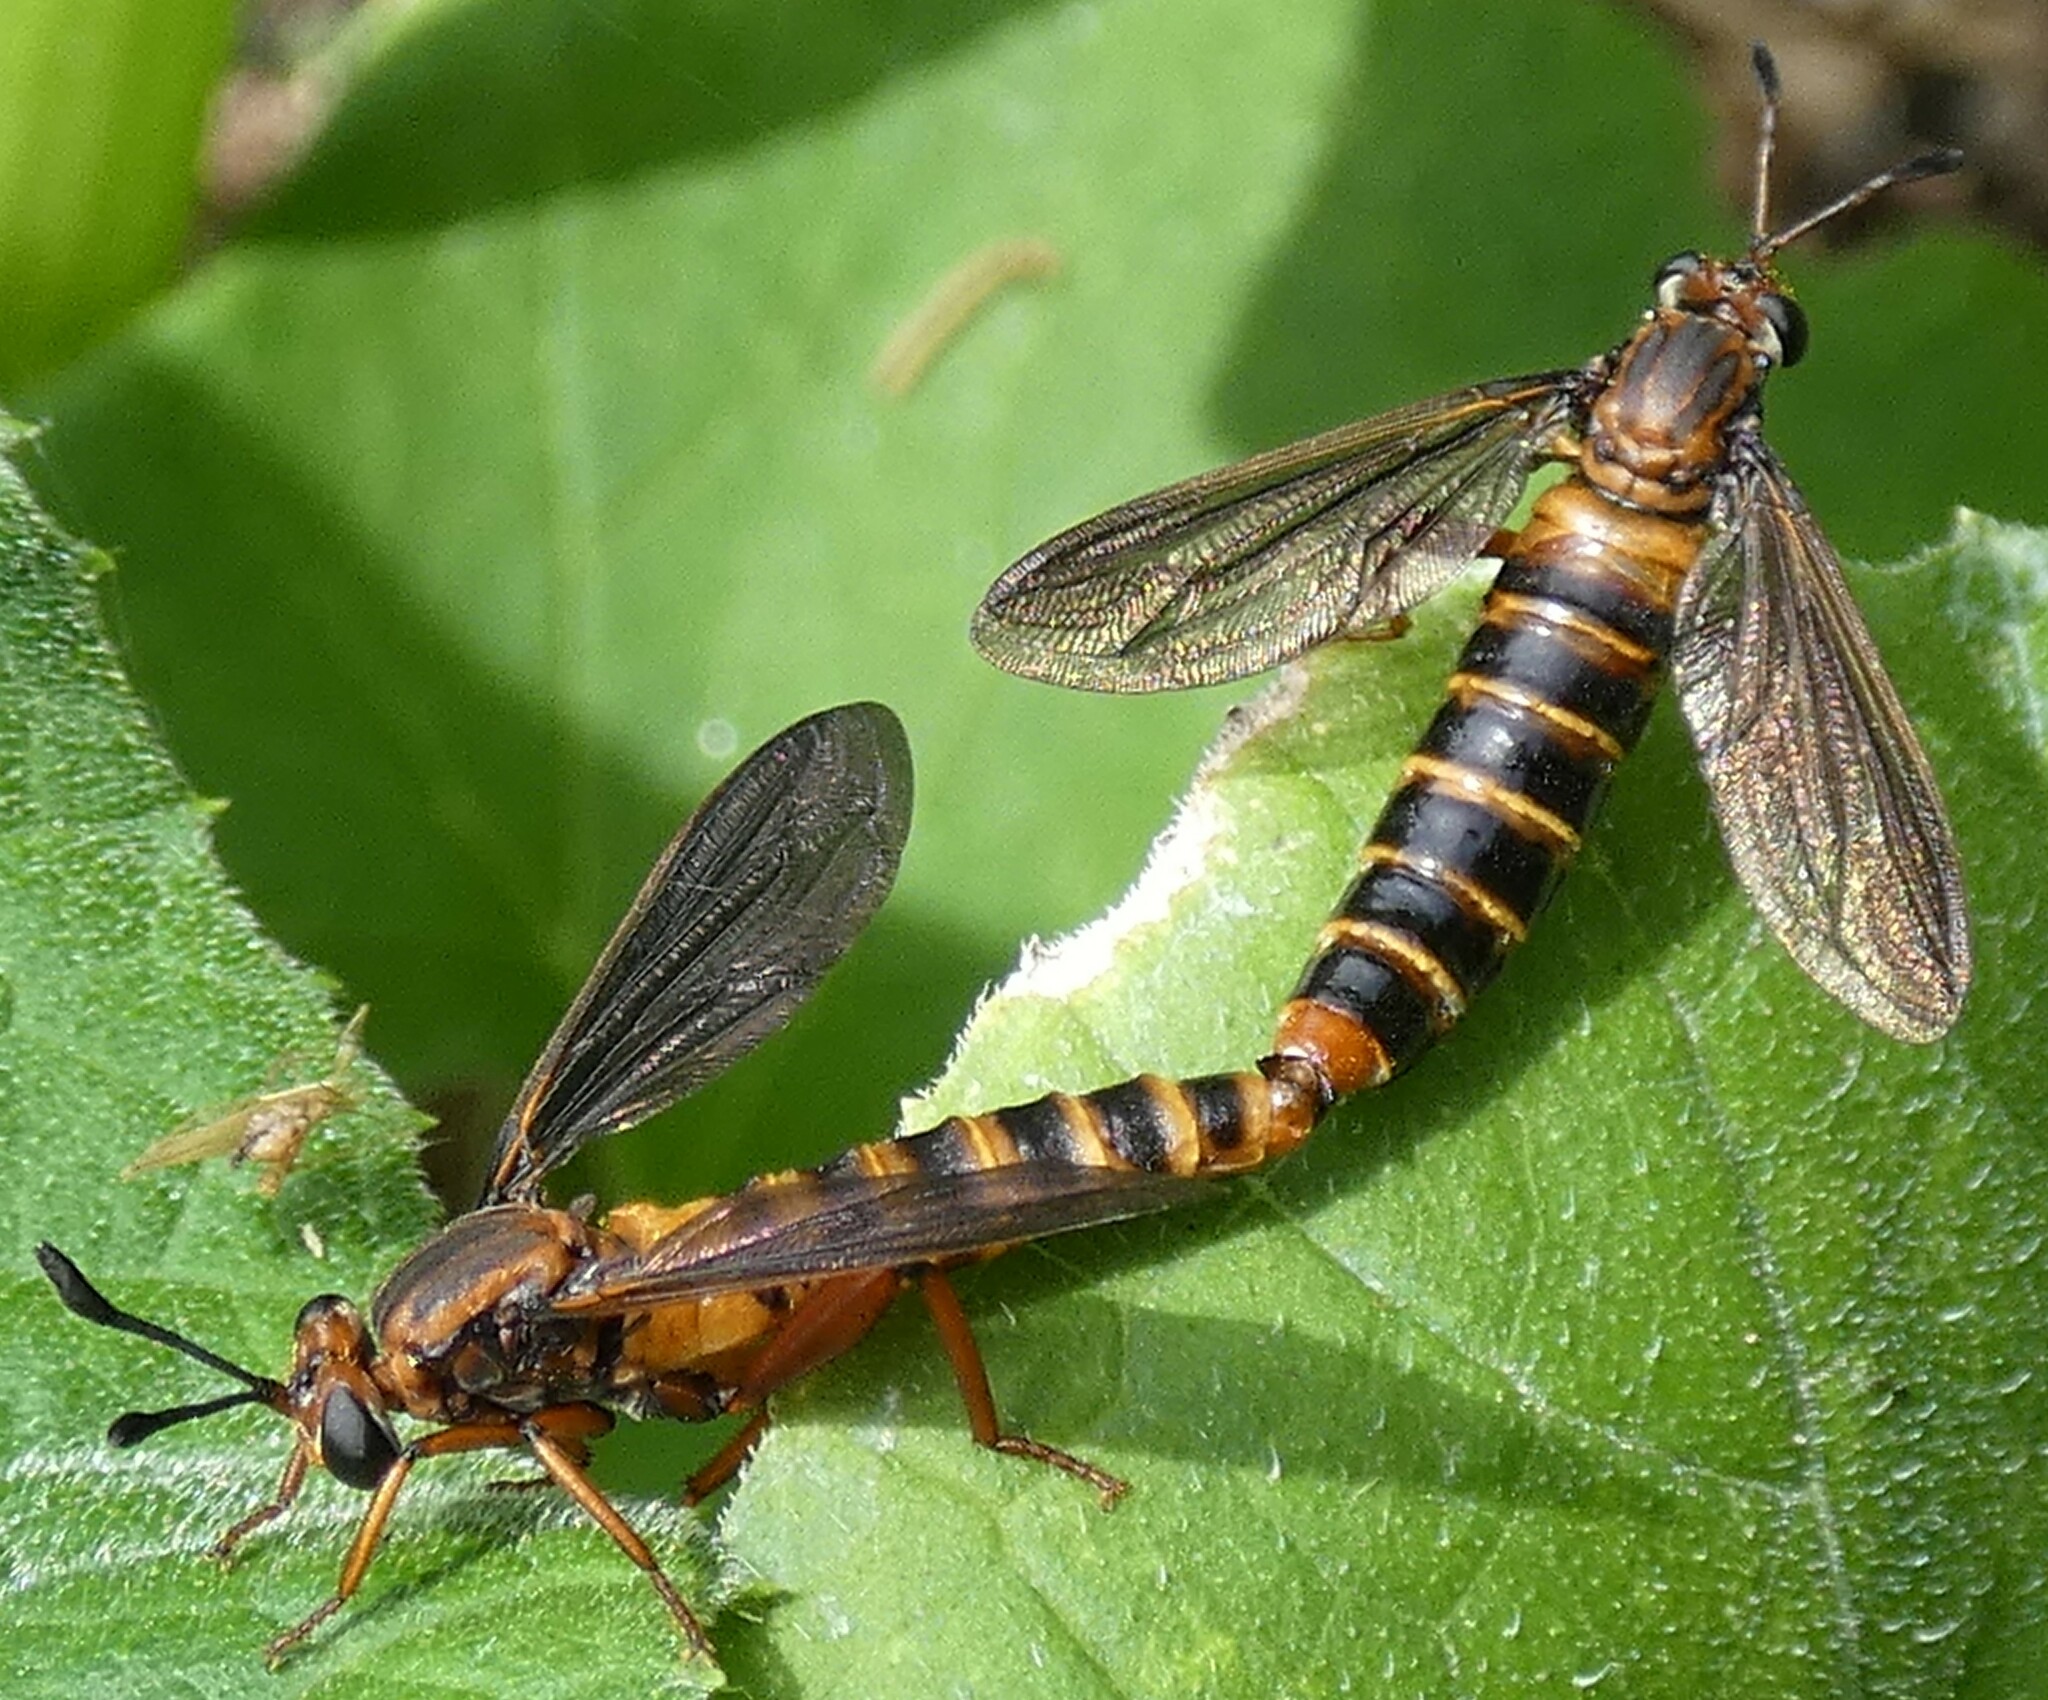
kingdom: Animalia
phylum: Arthropoda
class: Insecta
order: Diptera
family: Mydidae
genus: Phyllomydas
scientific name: Phyllomydas parvulus
